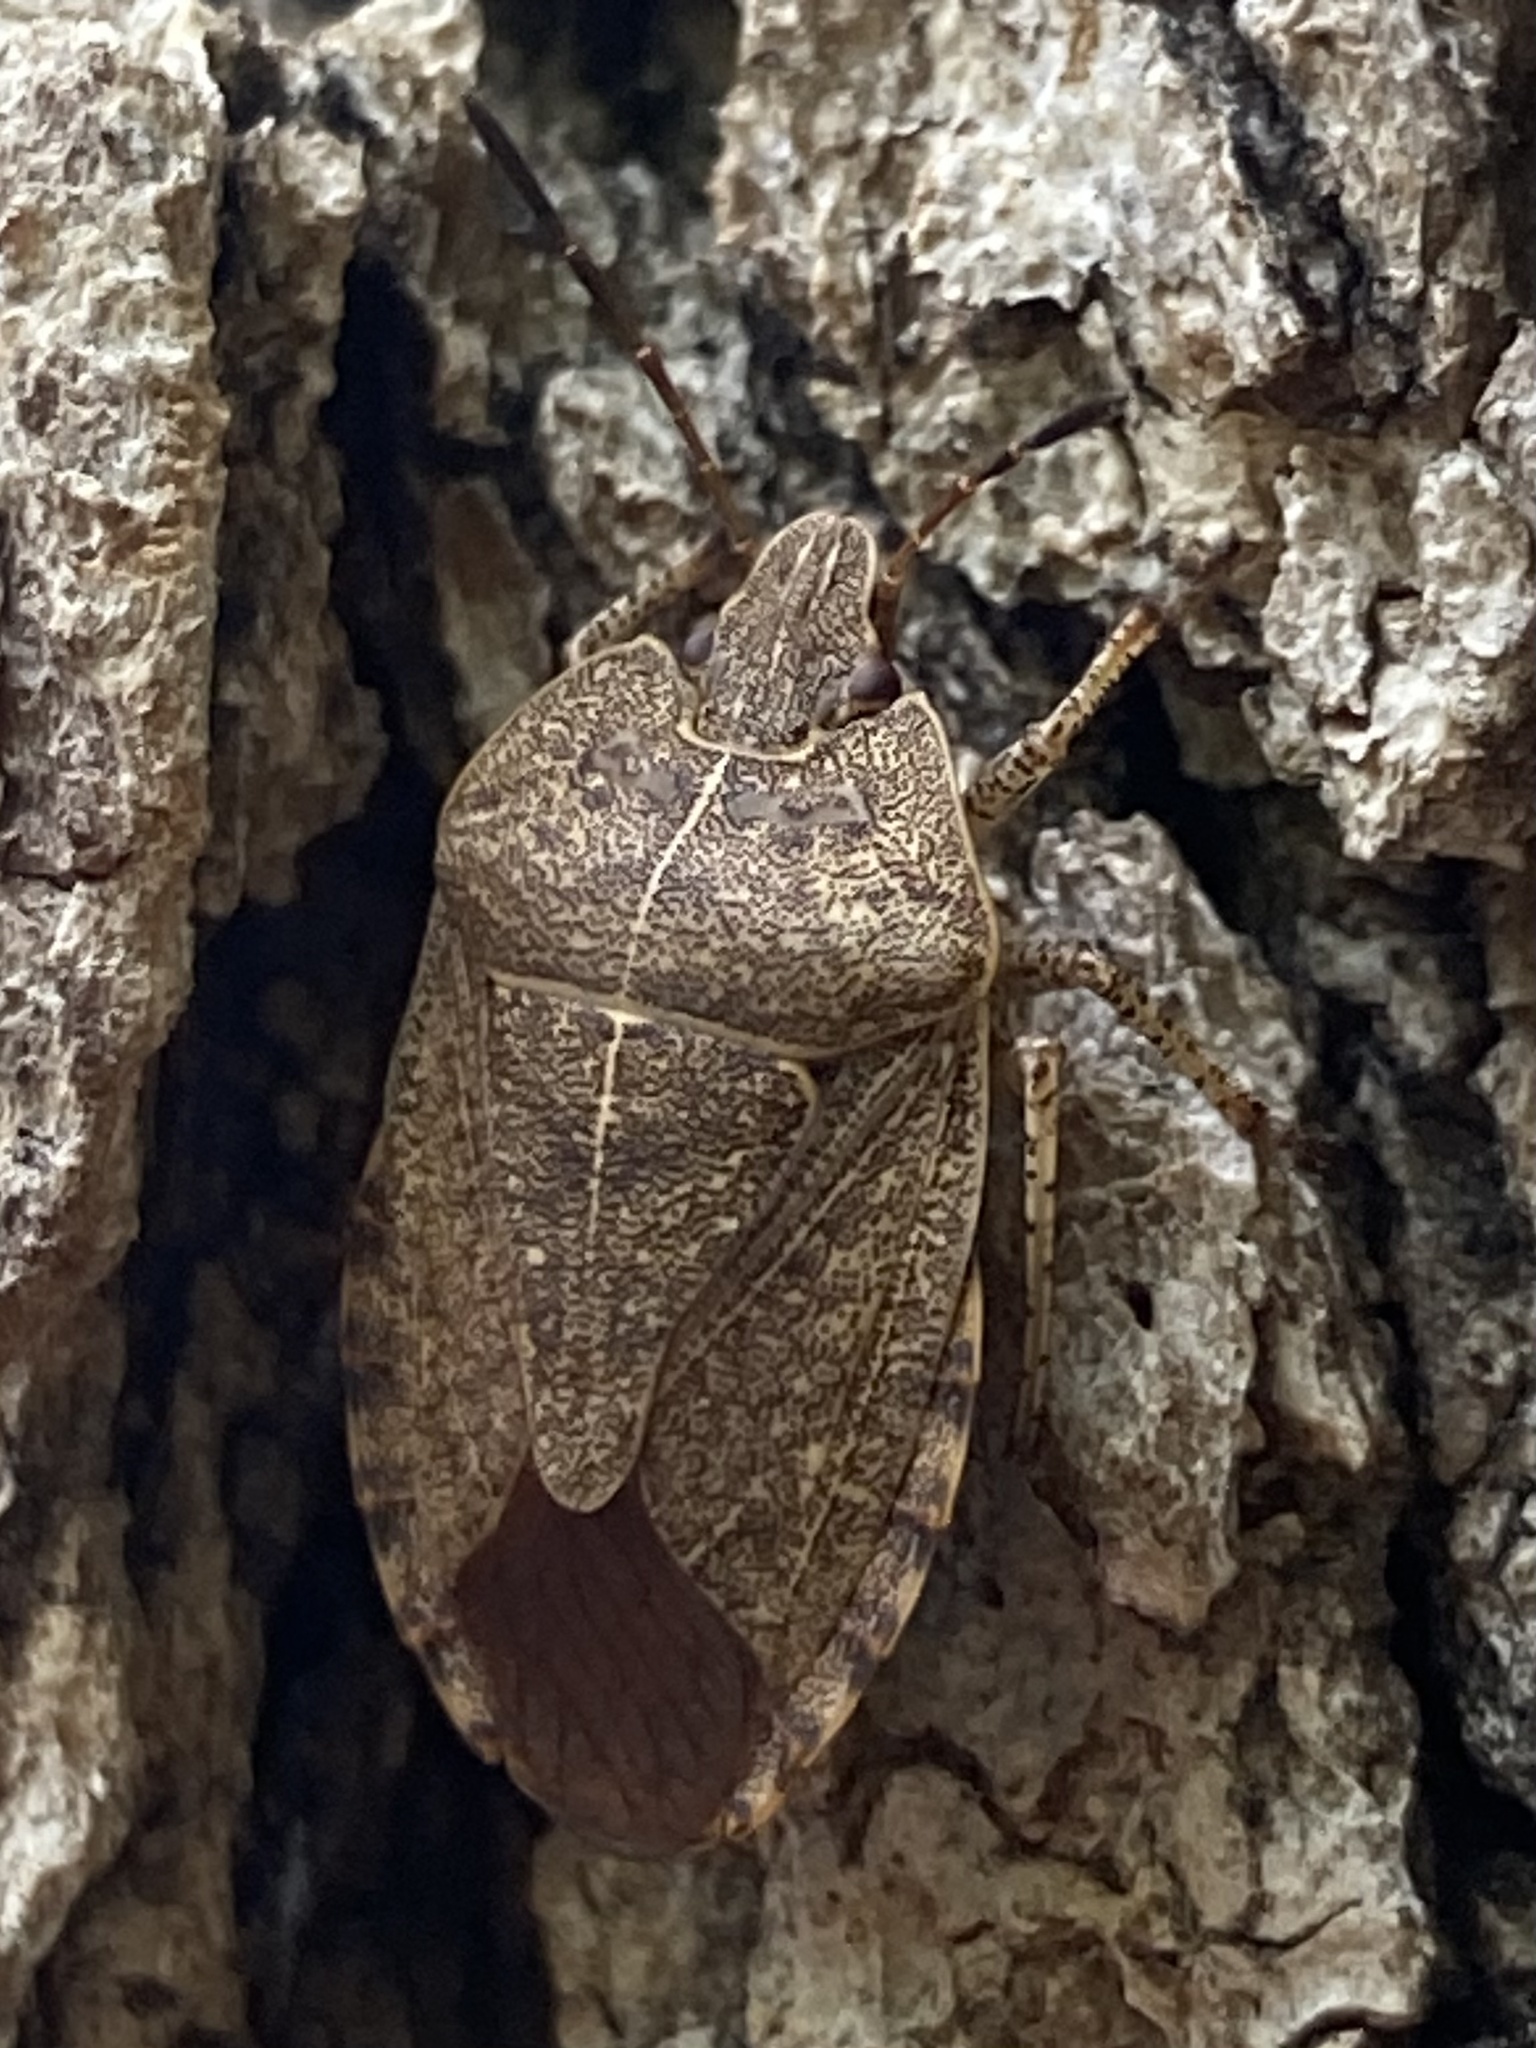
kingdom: Animalia
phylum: Arthropoda
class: Insecta
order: Hemiptera
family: Pentatomidae
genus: Menecles
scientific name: Menecles insertus
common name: Elf shoe stink bug
